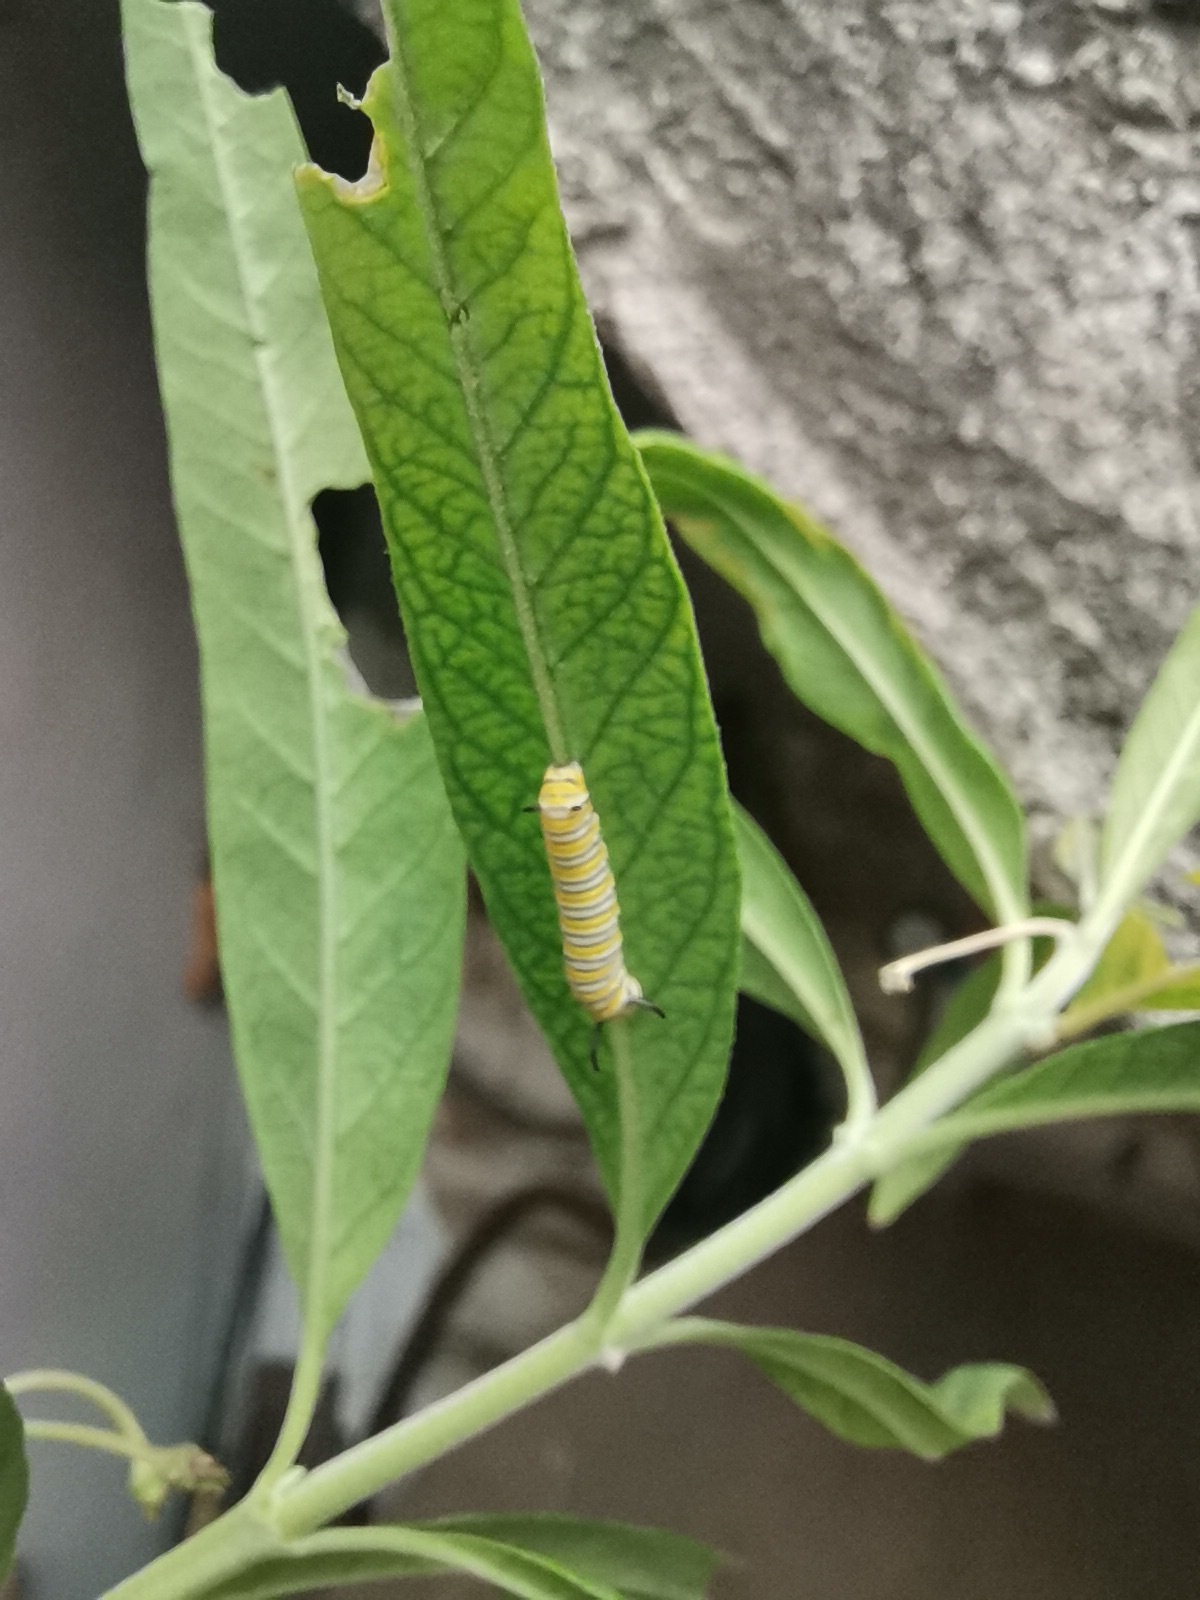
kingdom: Animalia
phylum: Arthropoda
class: Insecta
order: Lepidoptera
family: Nymphalidae
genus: Danaus
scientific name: Danaus plexippus
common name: Monarch
